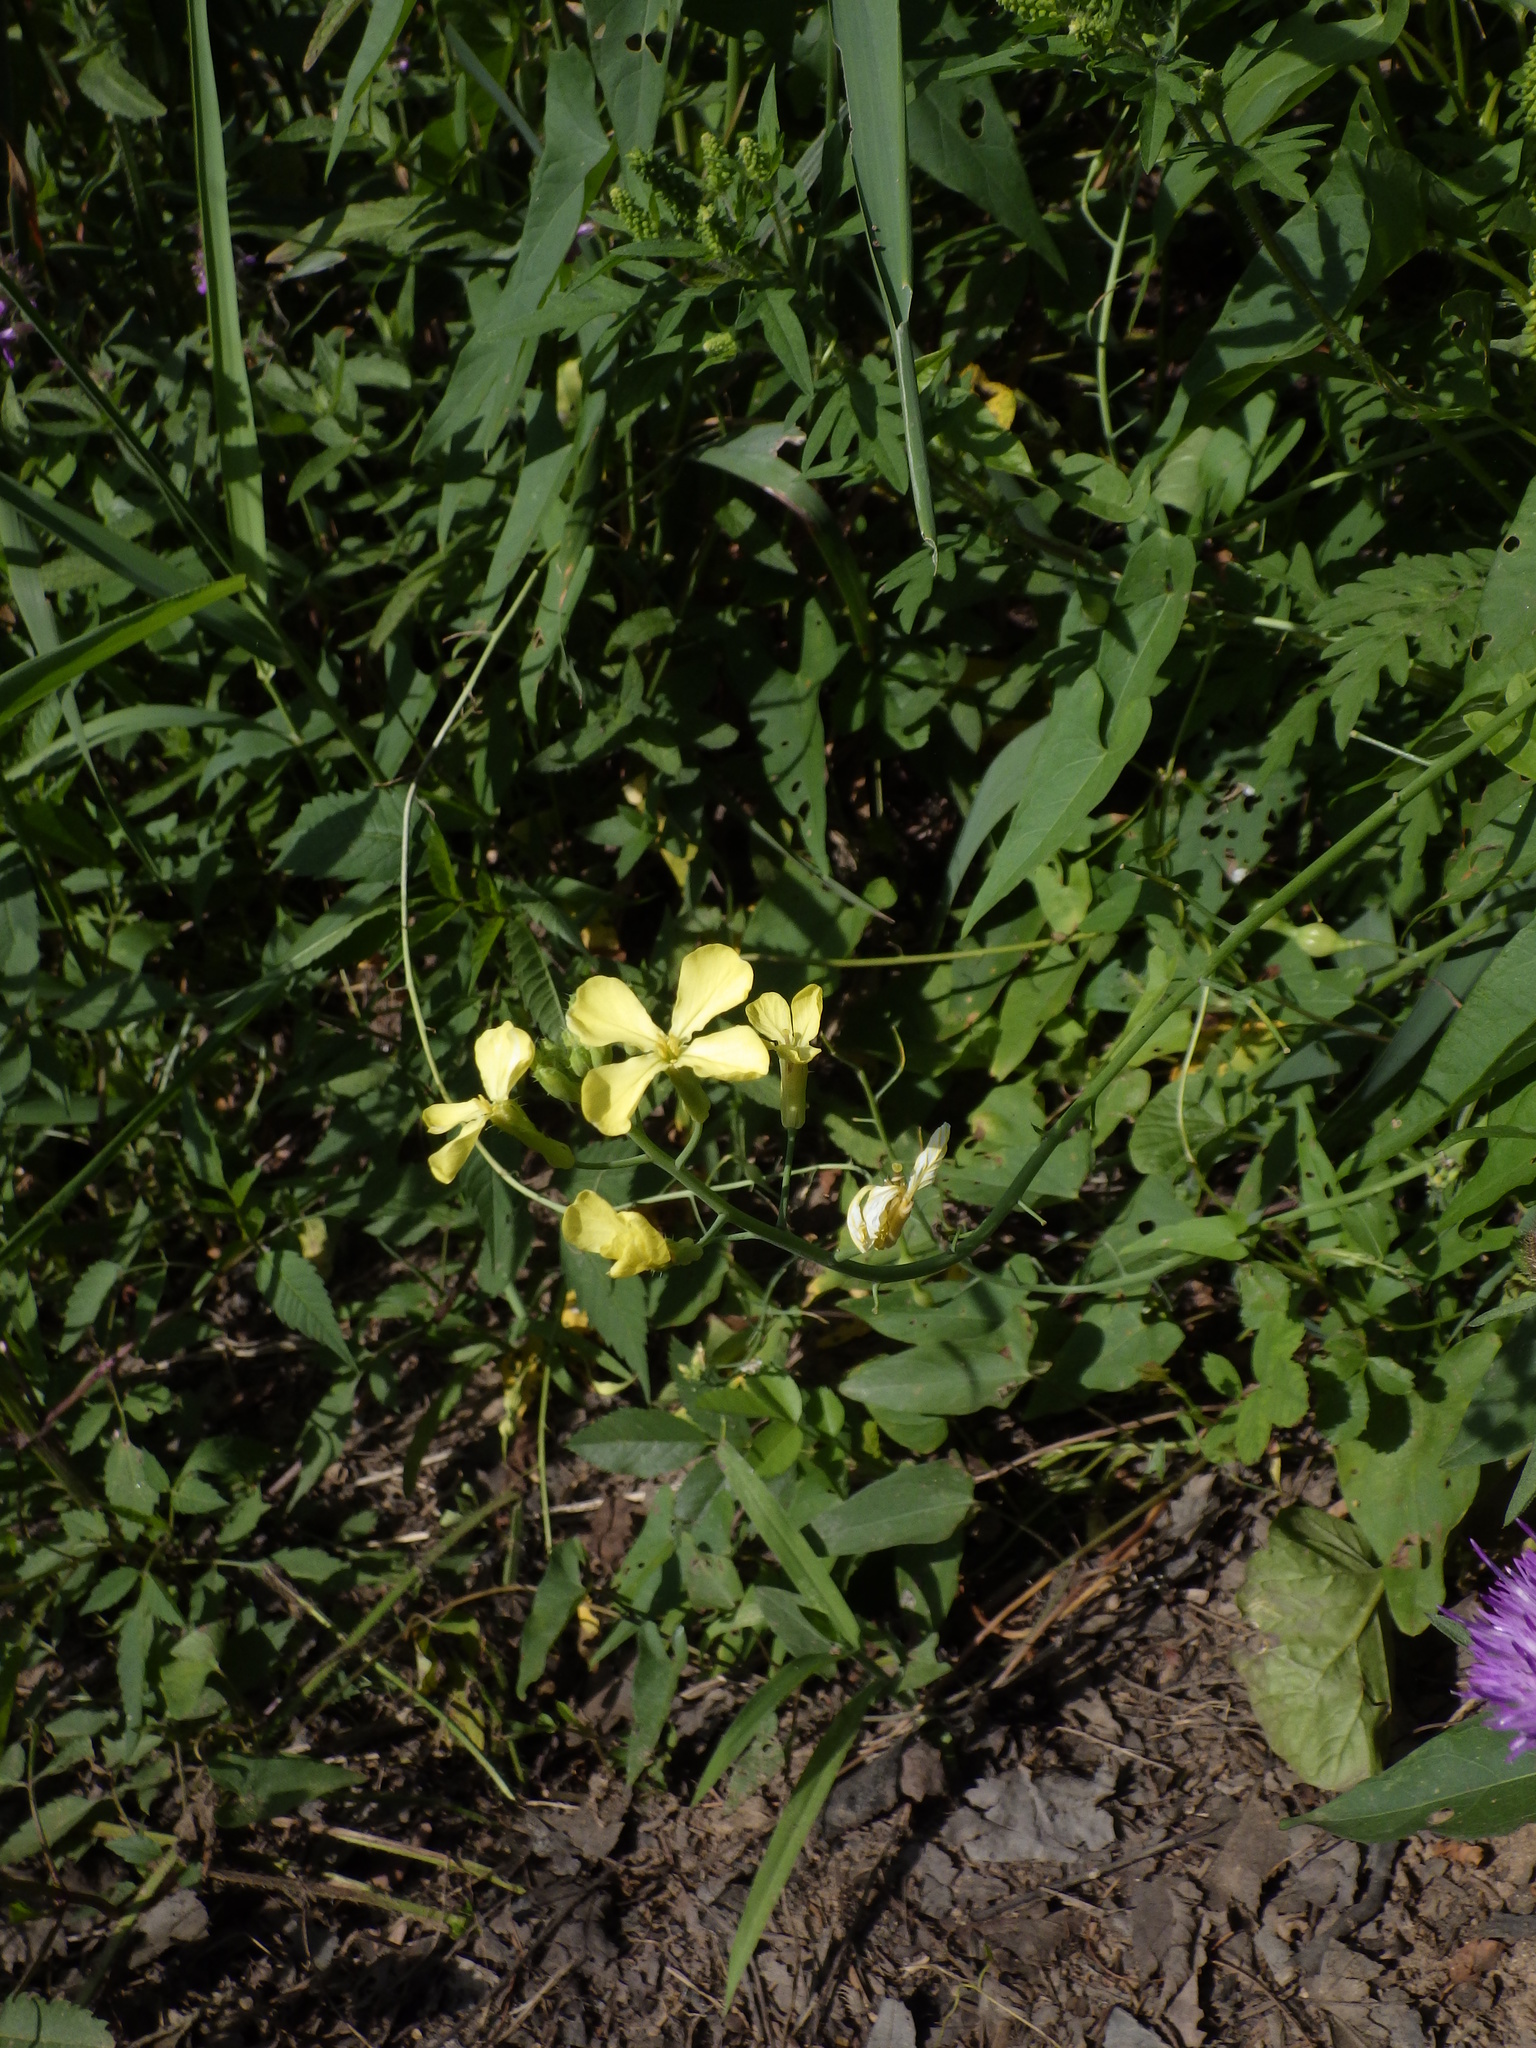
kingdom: Plantae
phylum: Tracheophyta
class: Magnoliopsida
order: Brassicales
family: Brassicaceae
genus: Raphanus
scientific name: Raphanus raphanistrum
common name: Wild radish
